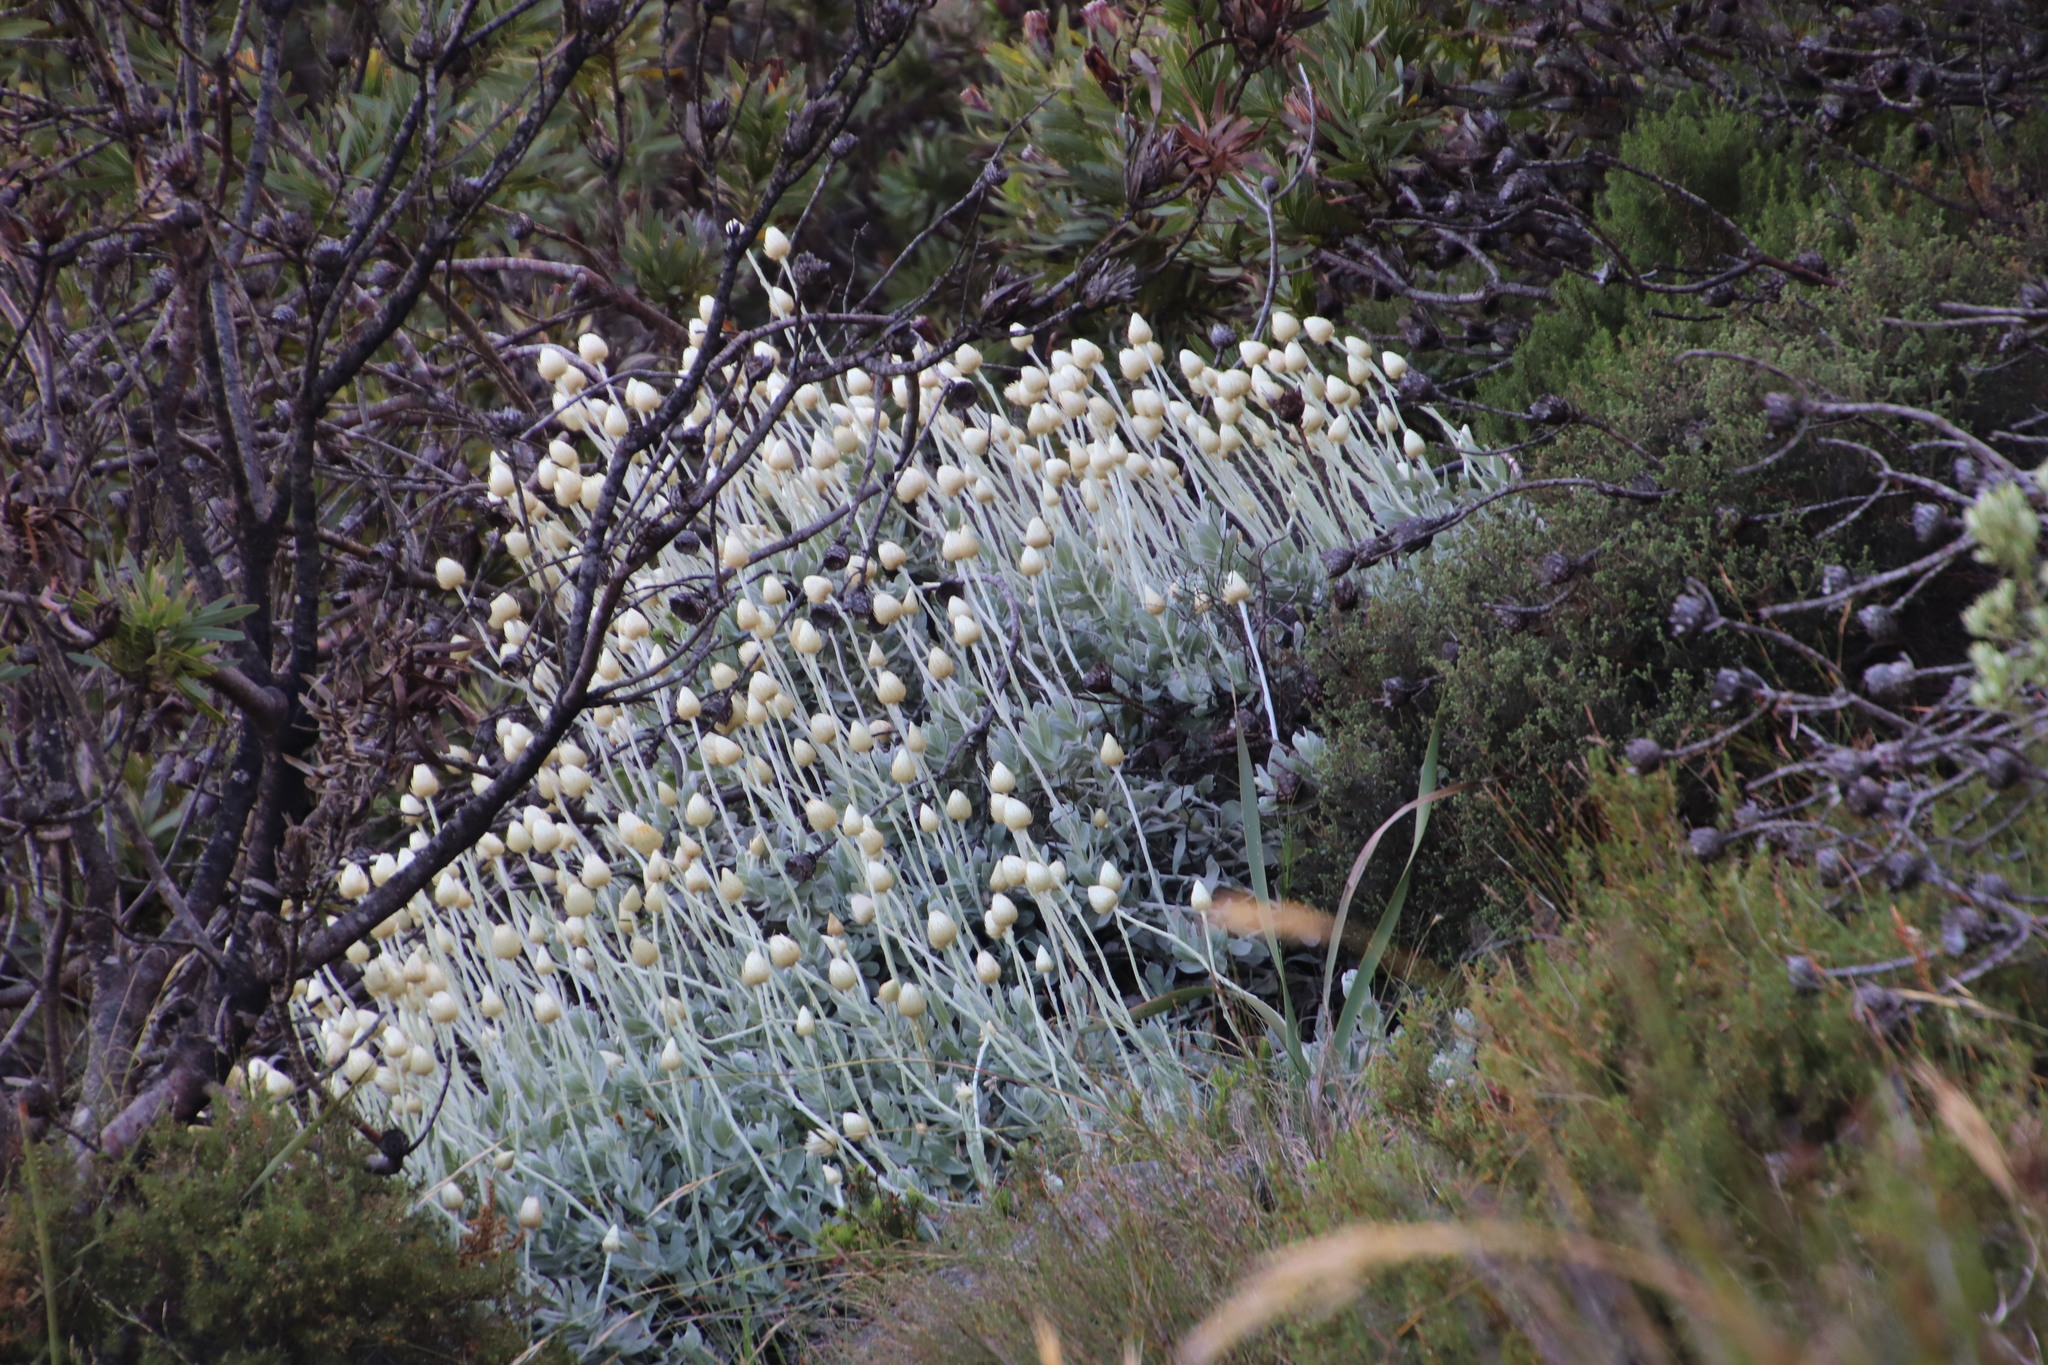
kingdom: Plantae
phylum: Tracheophyta
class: Magnoliopsida
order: Asterales
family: Asteraceae
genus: Syncarpha
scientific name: Syncarpha speciosissima
